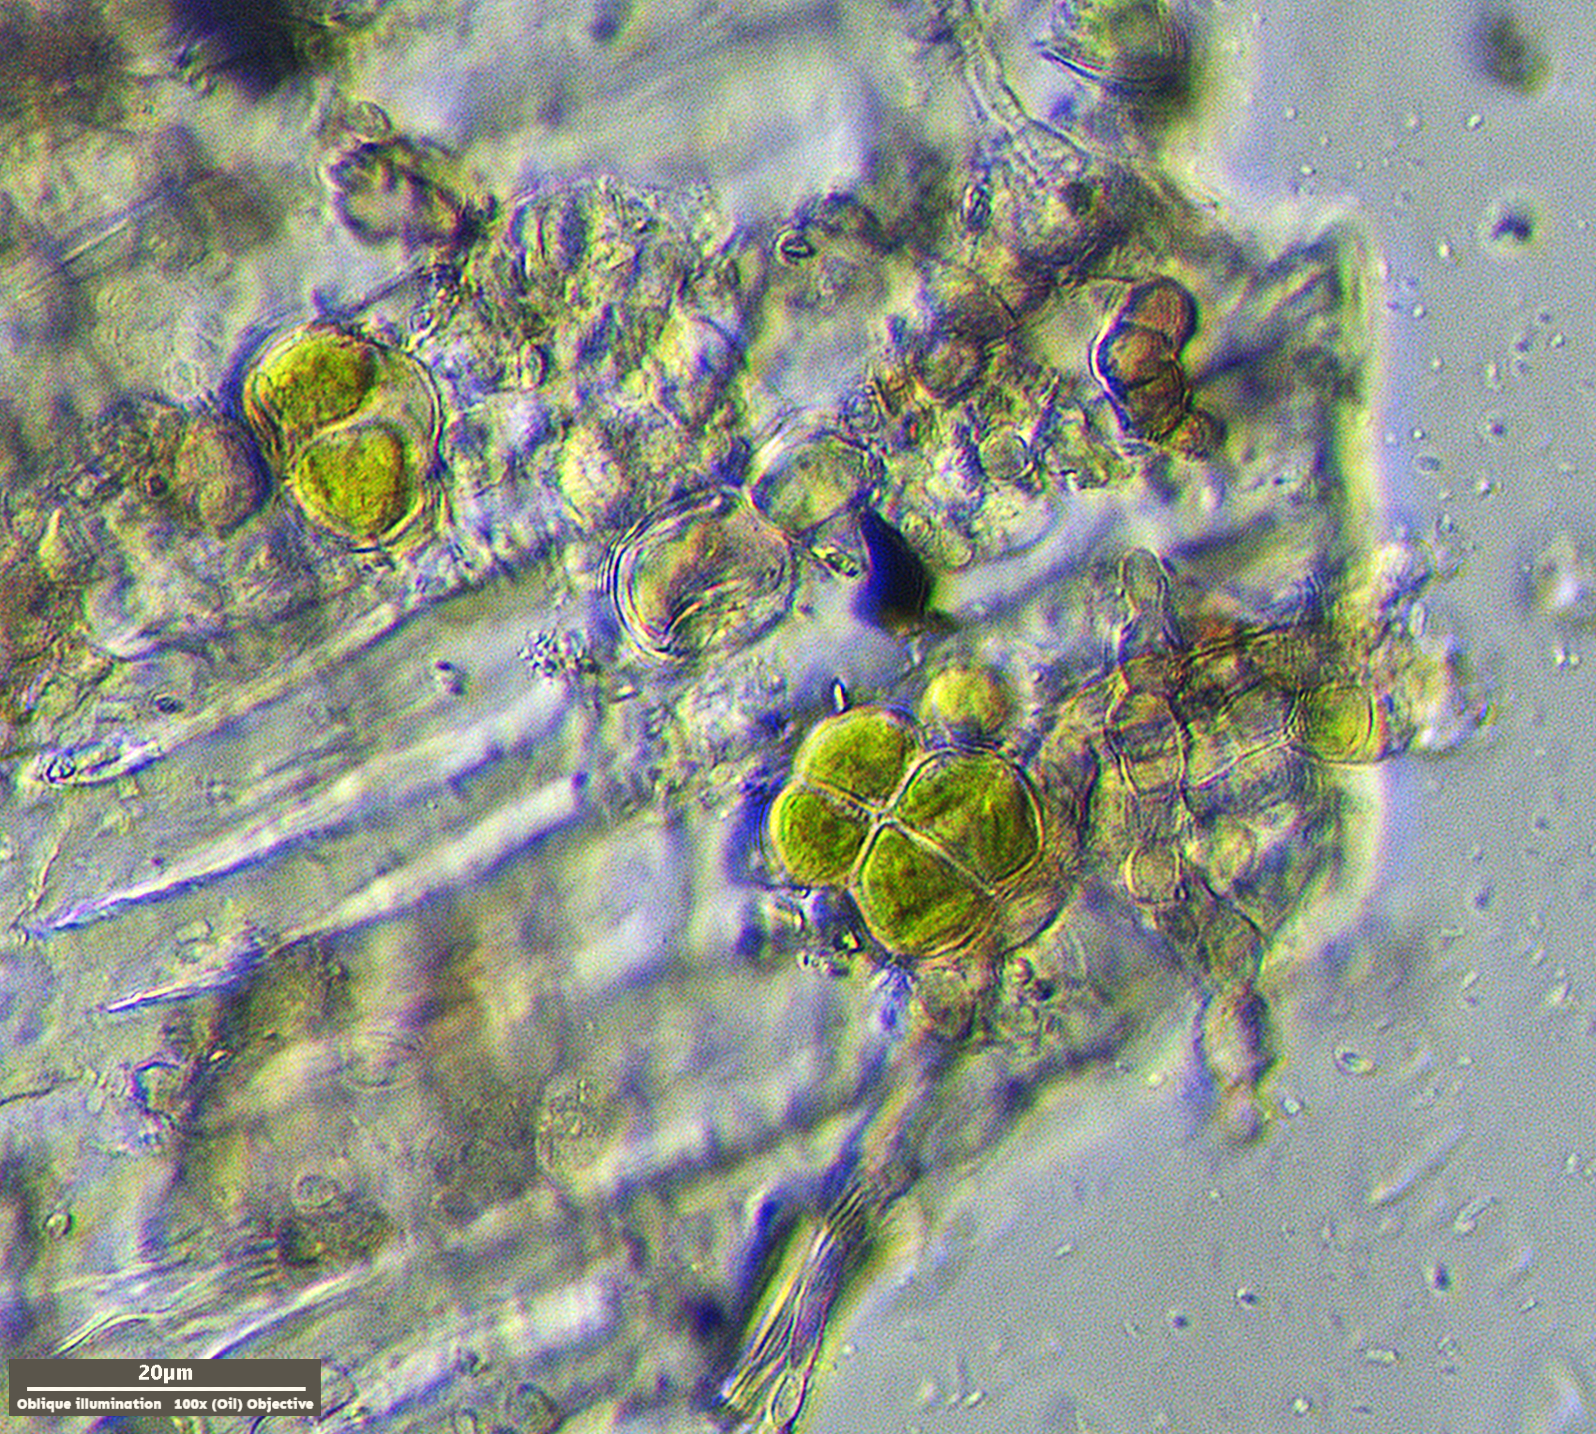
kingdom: Plantae
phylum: Chlorophyta
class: Trebouxiophyceae
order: Prasiolales
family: Prasiolaceae
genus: Desmococcus
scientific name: Desmococcus olivaceus
